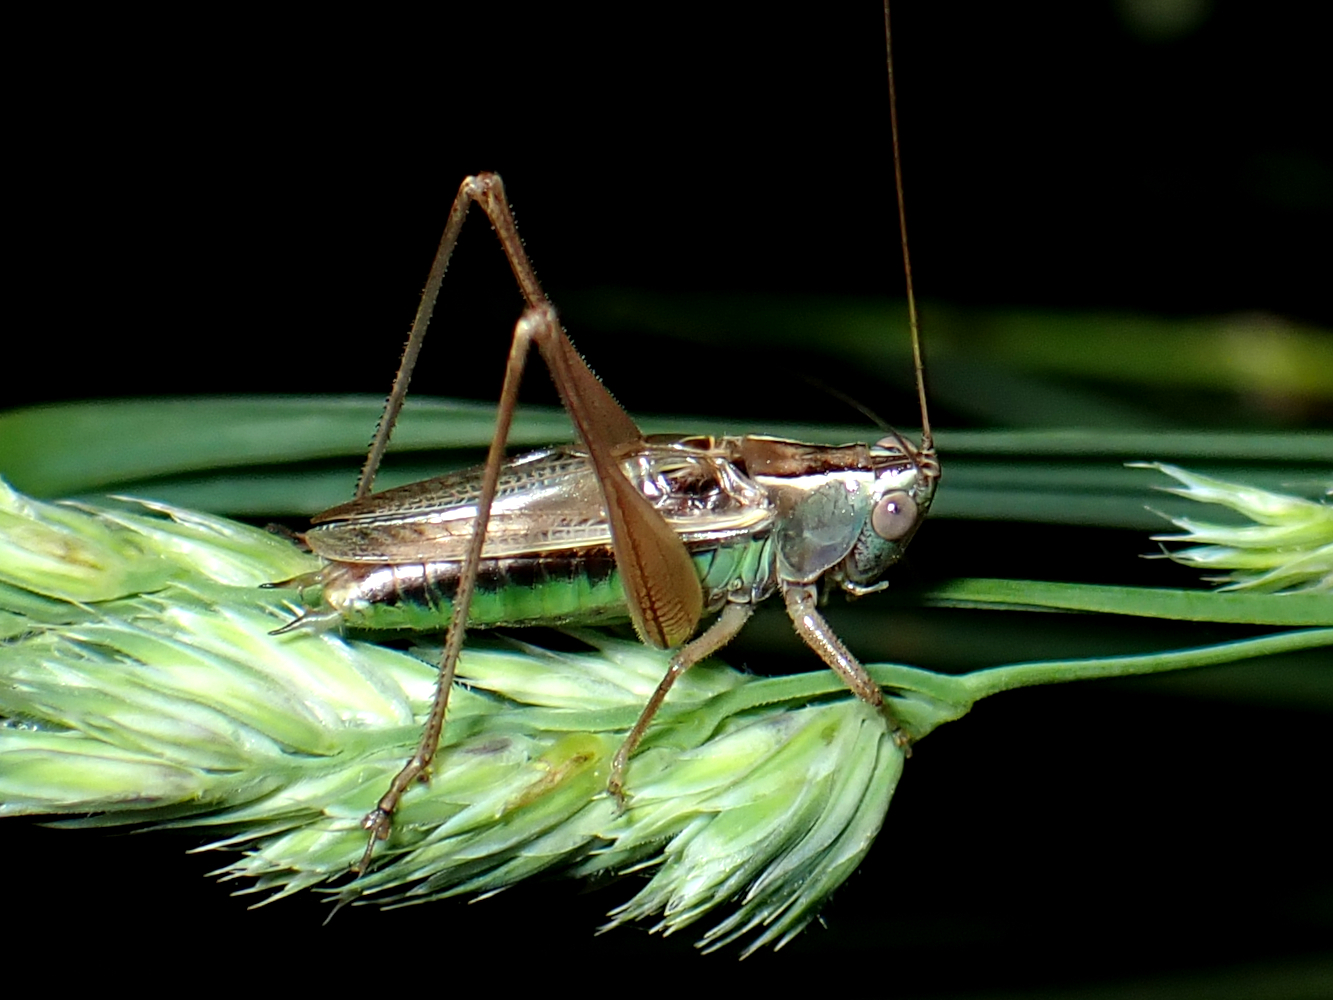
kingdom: Animalia
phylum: Arthropoda
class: Insecta
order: Orthoptera
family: Tettigoniidae
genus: Conocephalus
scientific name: Conocephalus albescens
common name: Whitish meadow katydid
